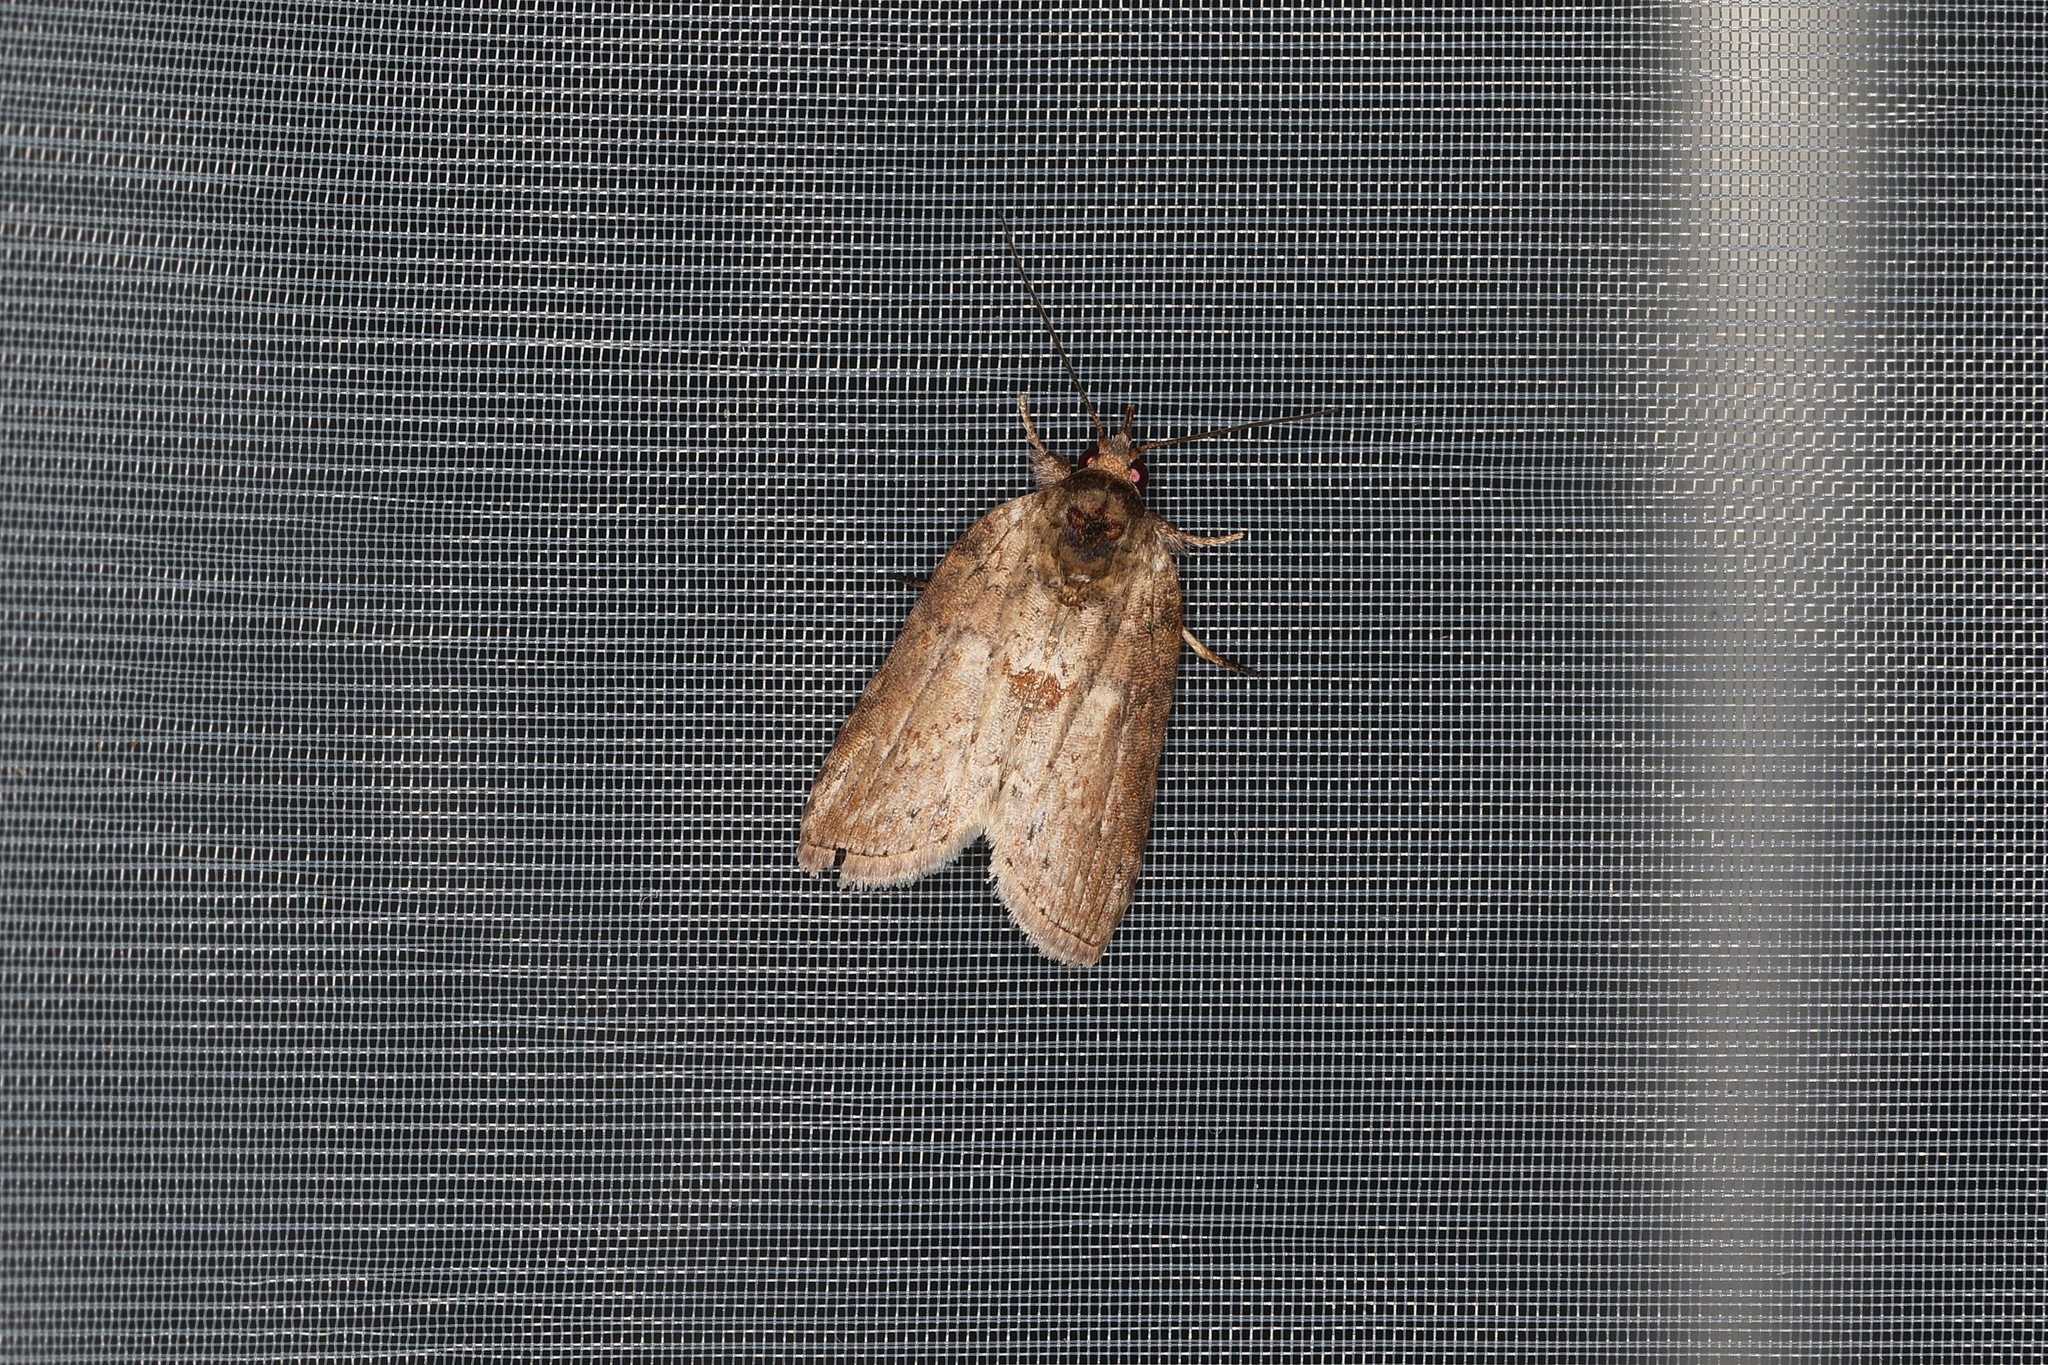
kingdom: Animalia
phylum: Arthropoda
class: Insecta
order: Lepidoptera
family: Nolidae
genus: Nycteola
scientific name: Nycteola indica
